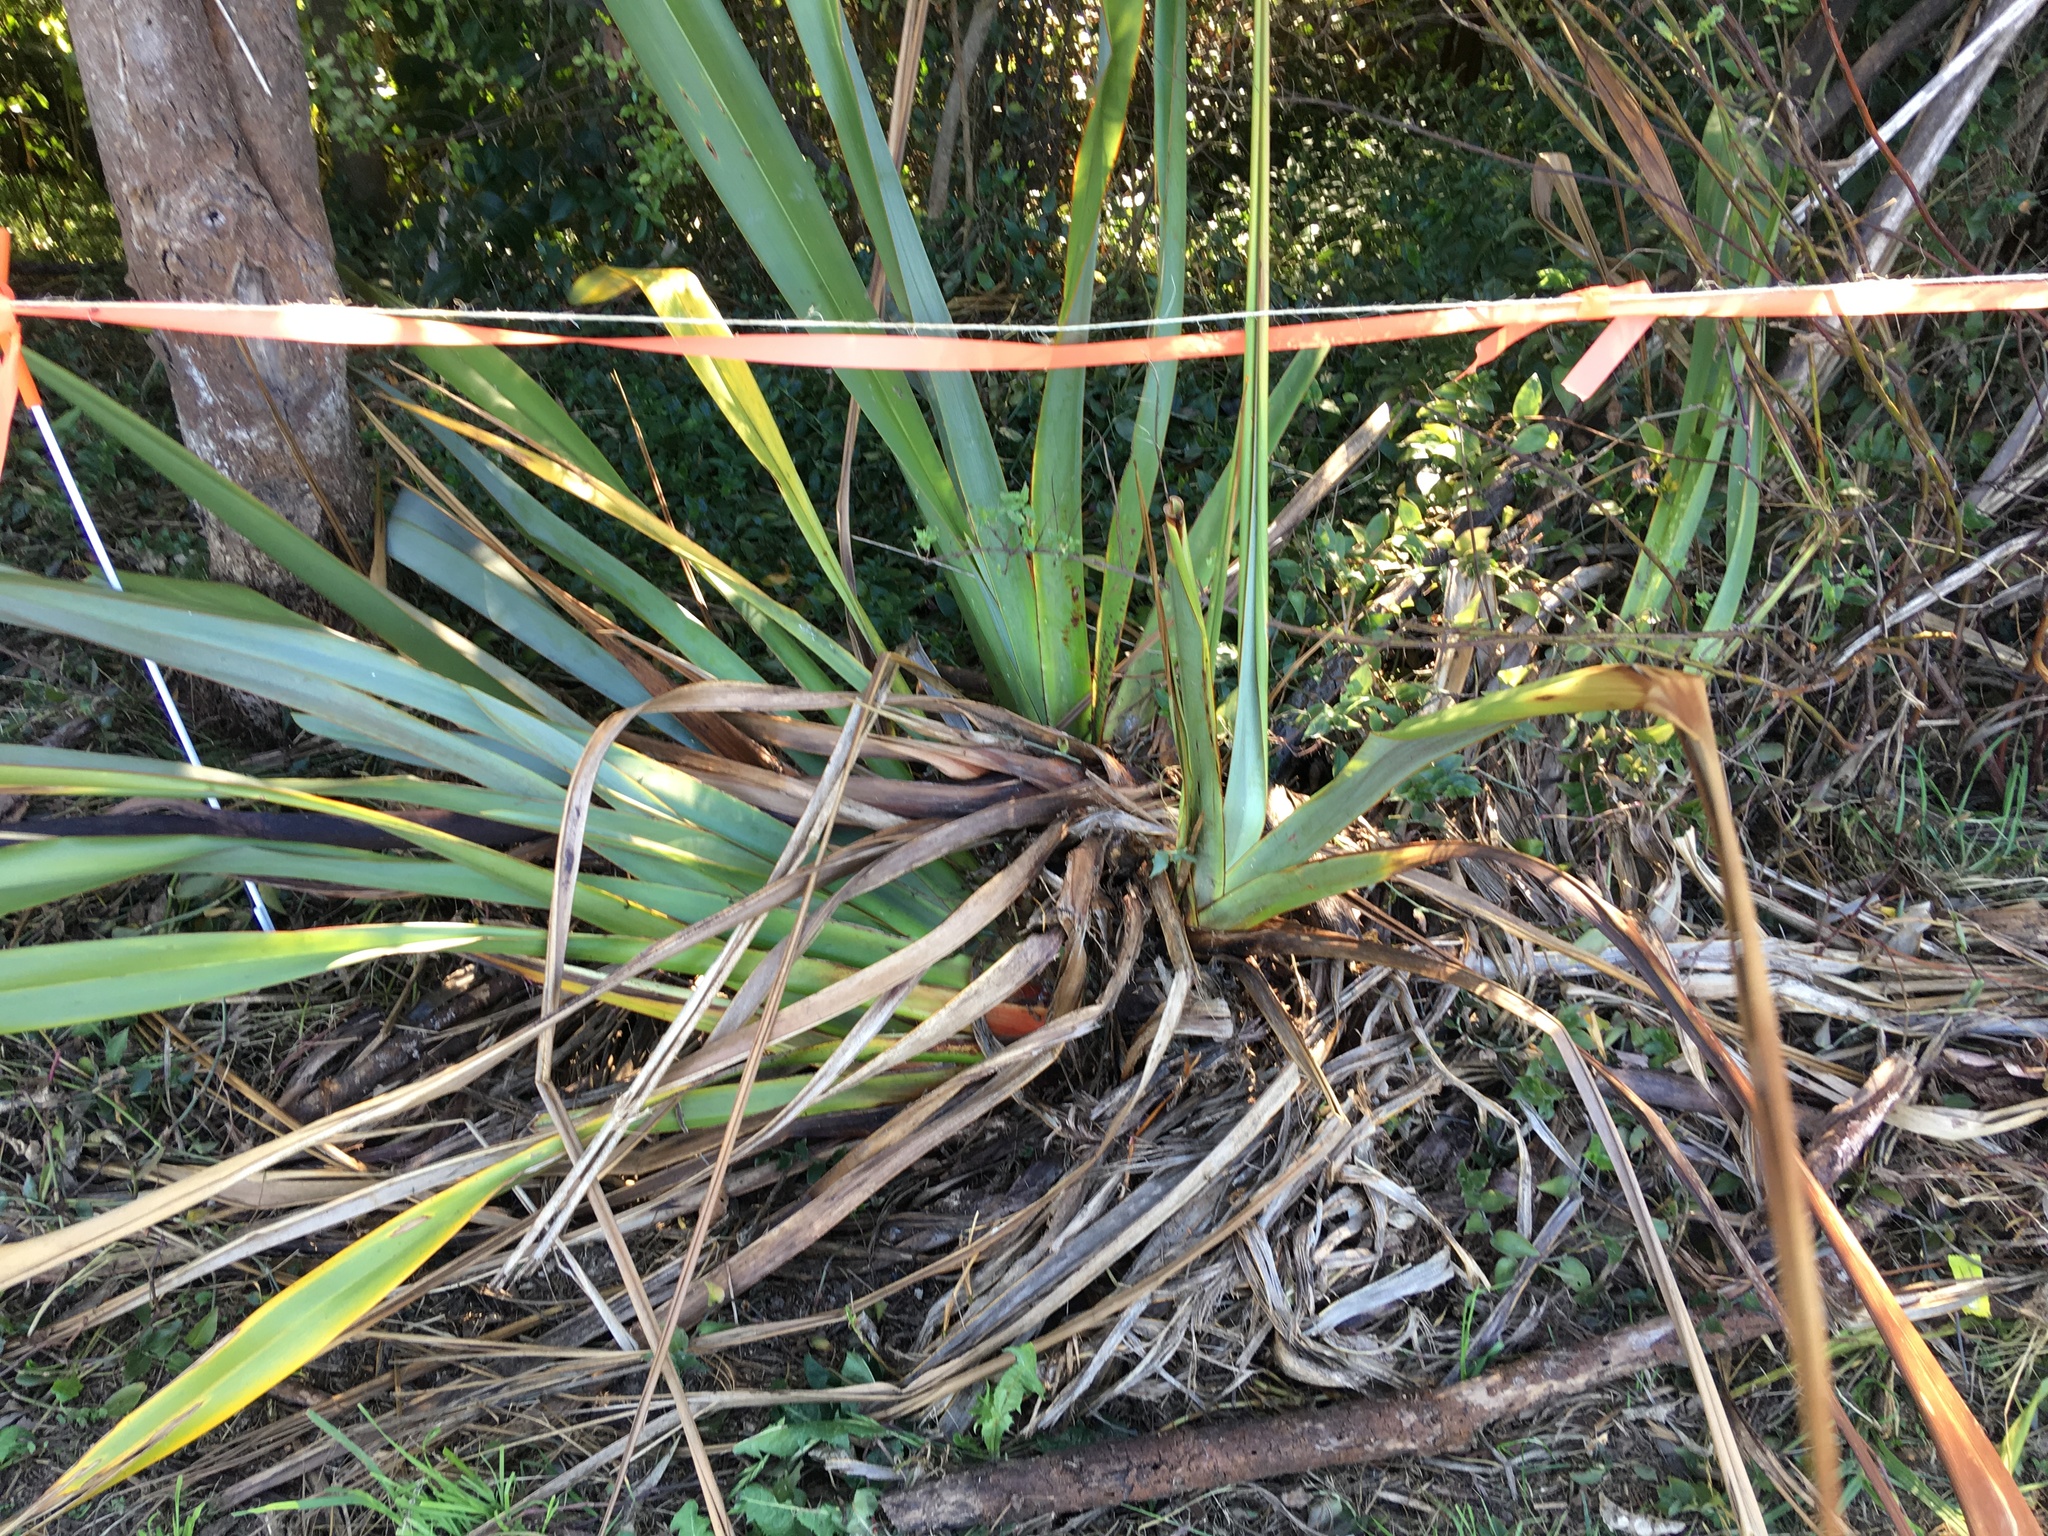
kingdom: Plantae
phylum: Tracheophyta
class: Liliopsida
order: Commelinales
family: Commelinaceae
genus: Tradescantia
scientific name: Tradescantia fluminensis
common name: Wandering-jew
